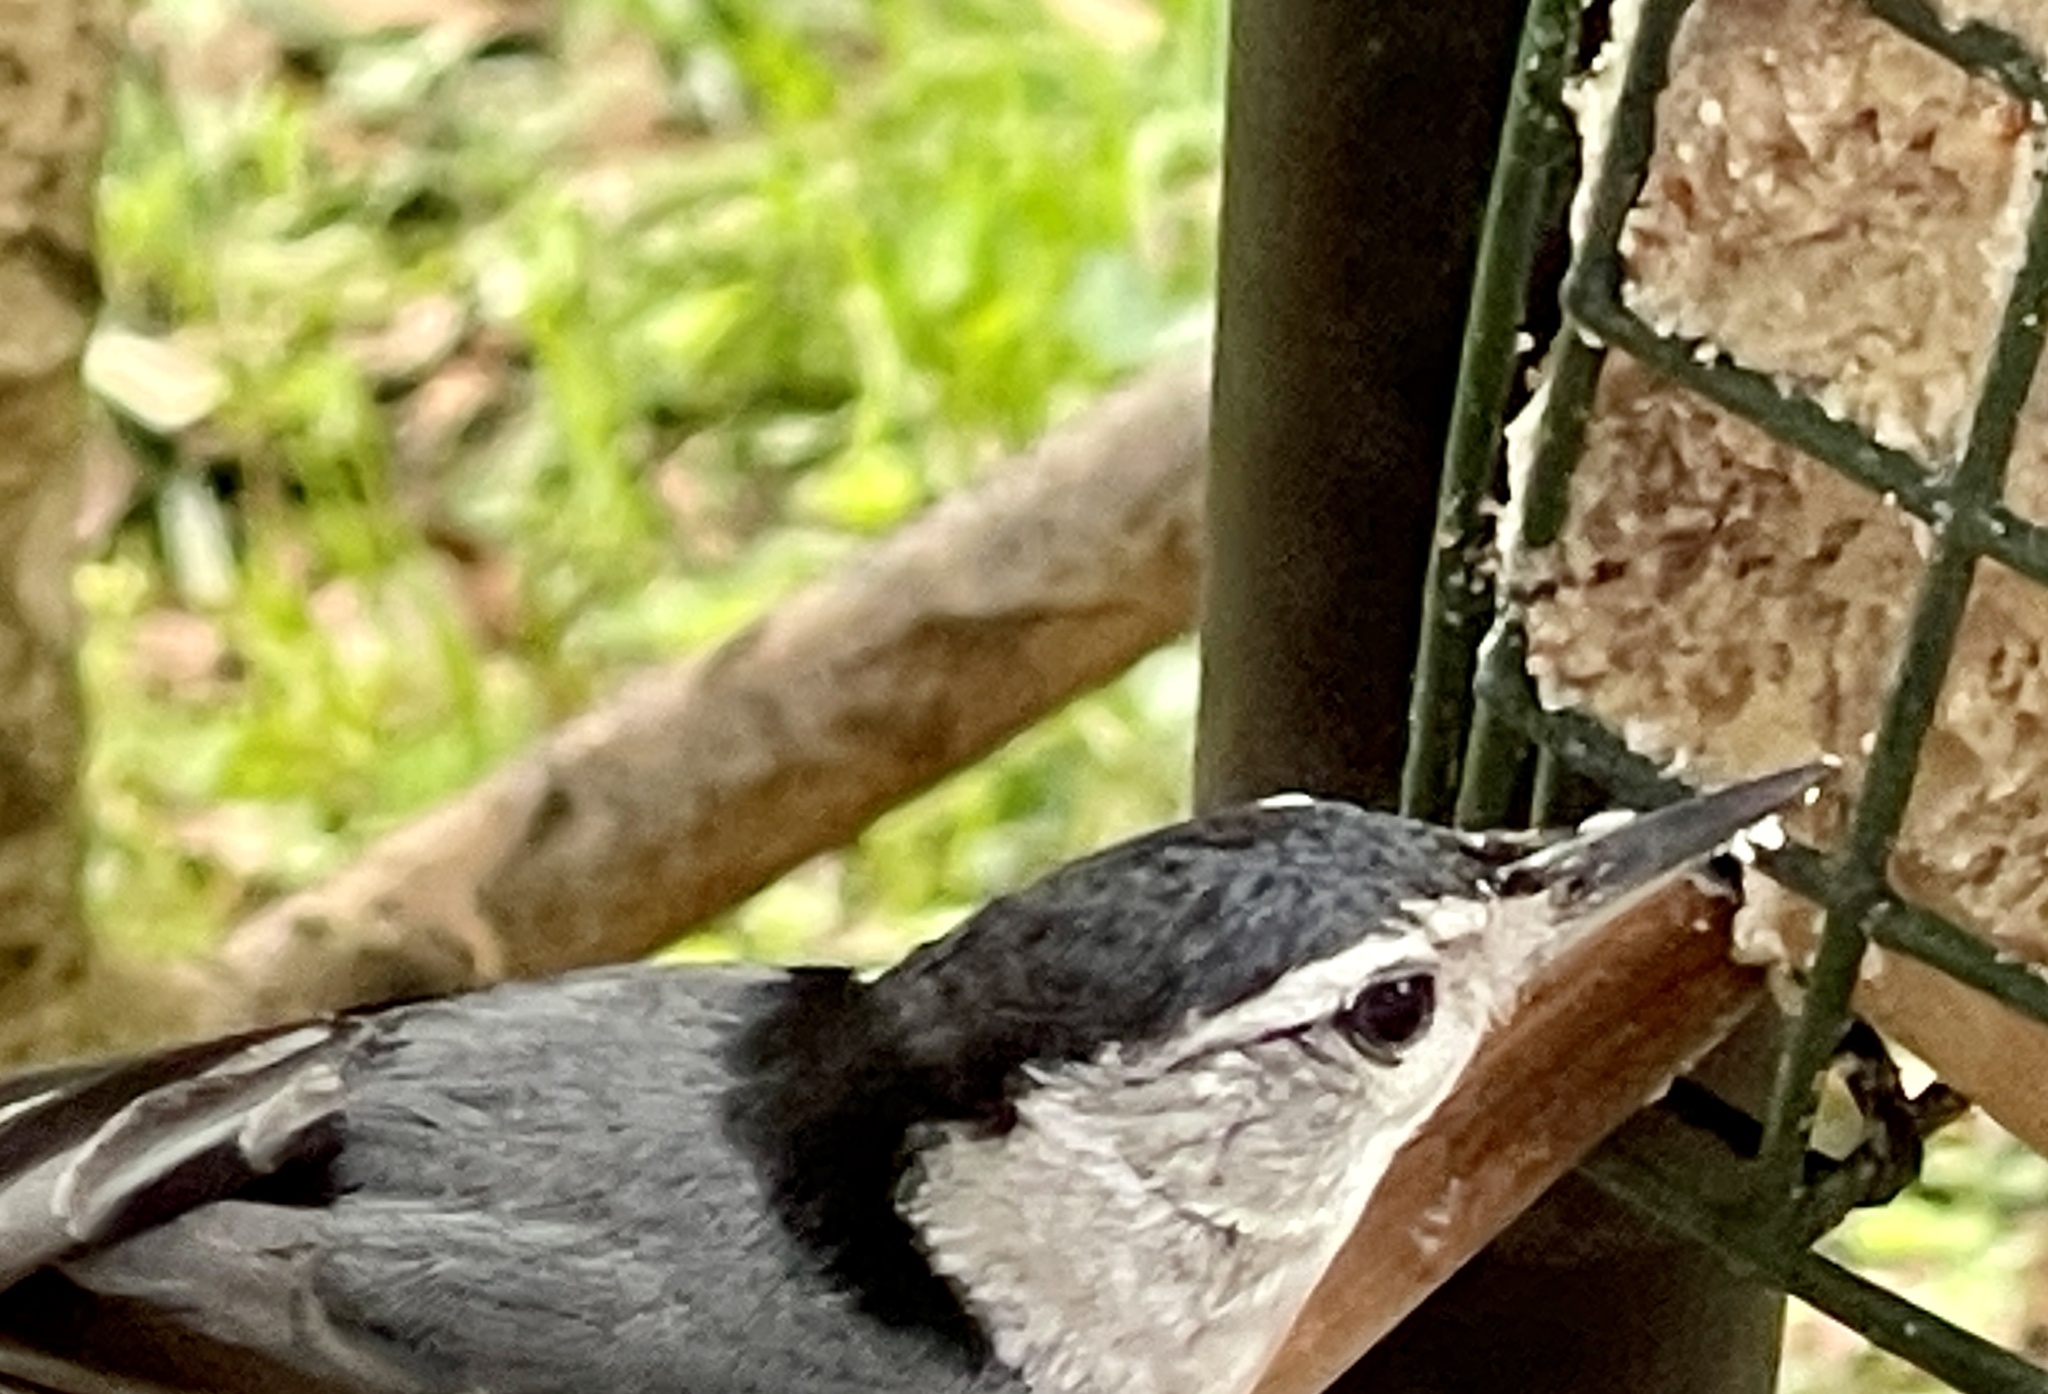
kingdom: Animalia
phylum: Chordata
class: Aves
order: Passeriformes
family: Sittidae
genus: Sitta
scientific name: Sitta carolinensis
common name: White-breasted nuthatch
